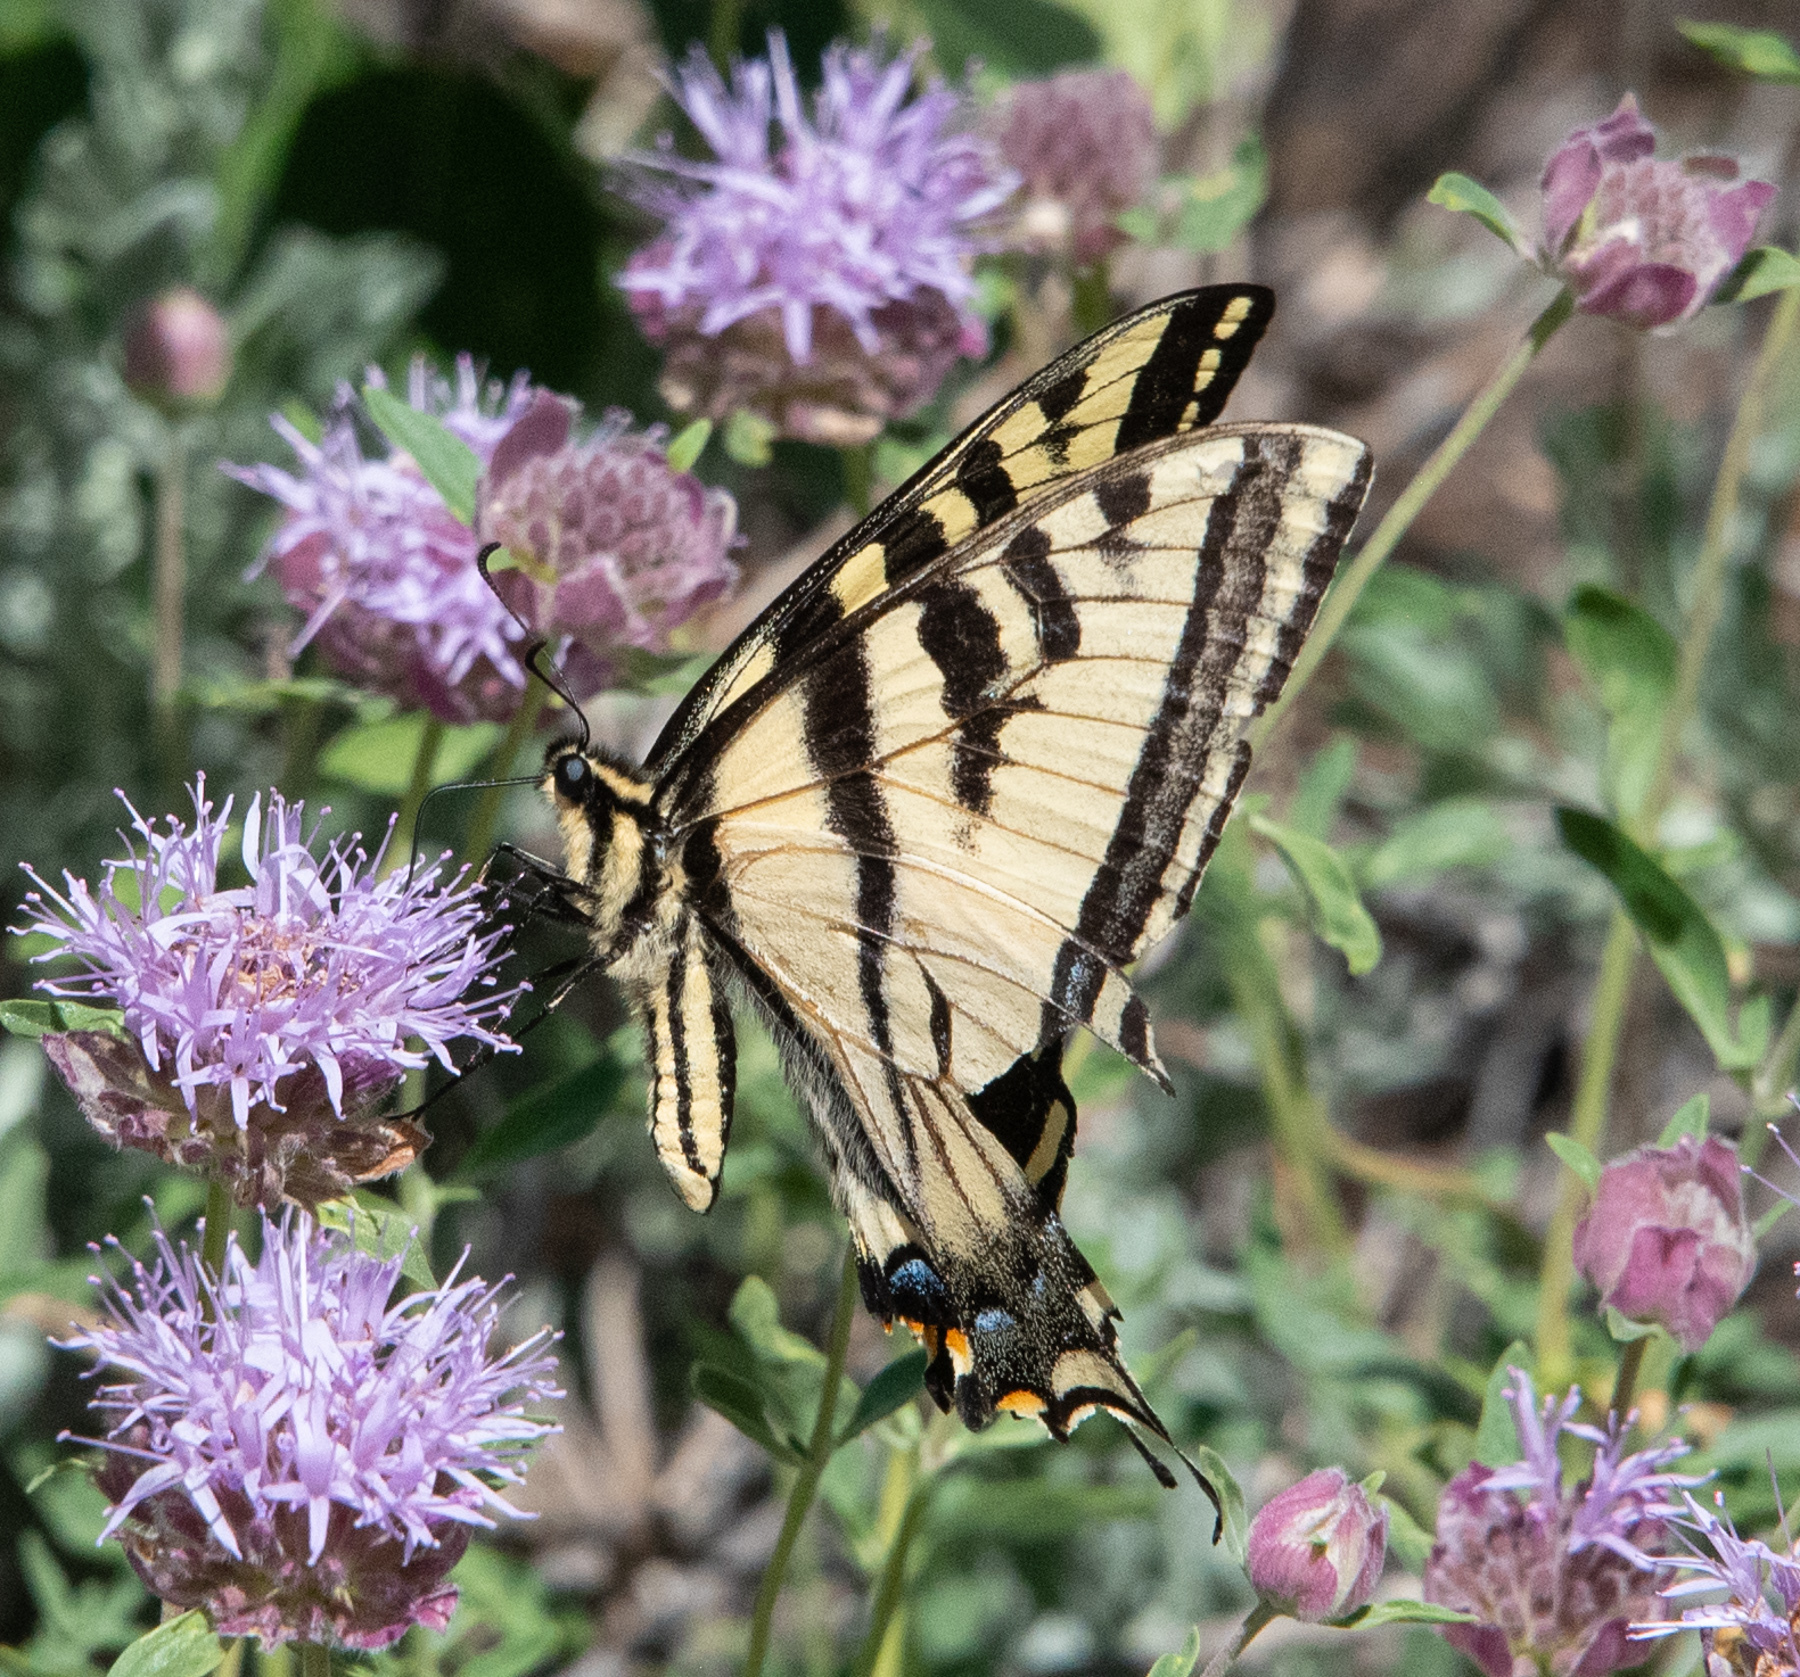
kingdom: Animalia
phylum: Arthropoda
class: Insecta
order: Lepidoptera
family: Papilionidae
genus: Papilio
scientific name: Papilio rutulus
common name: Western tiger swallowtail
